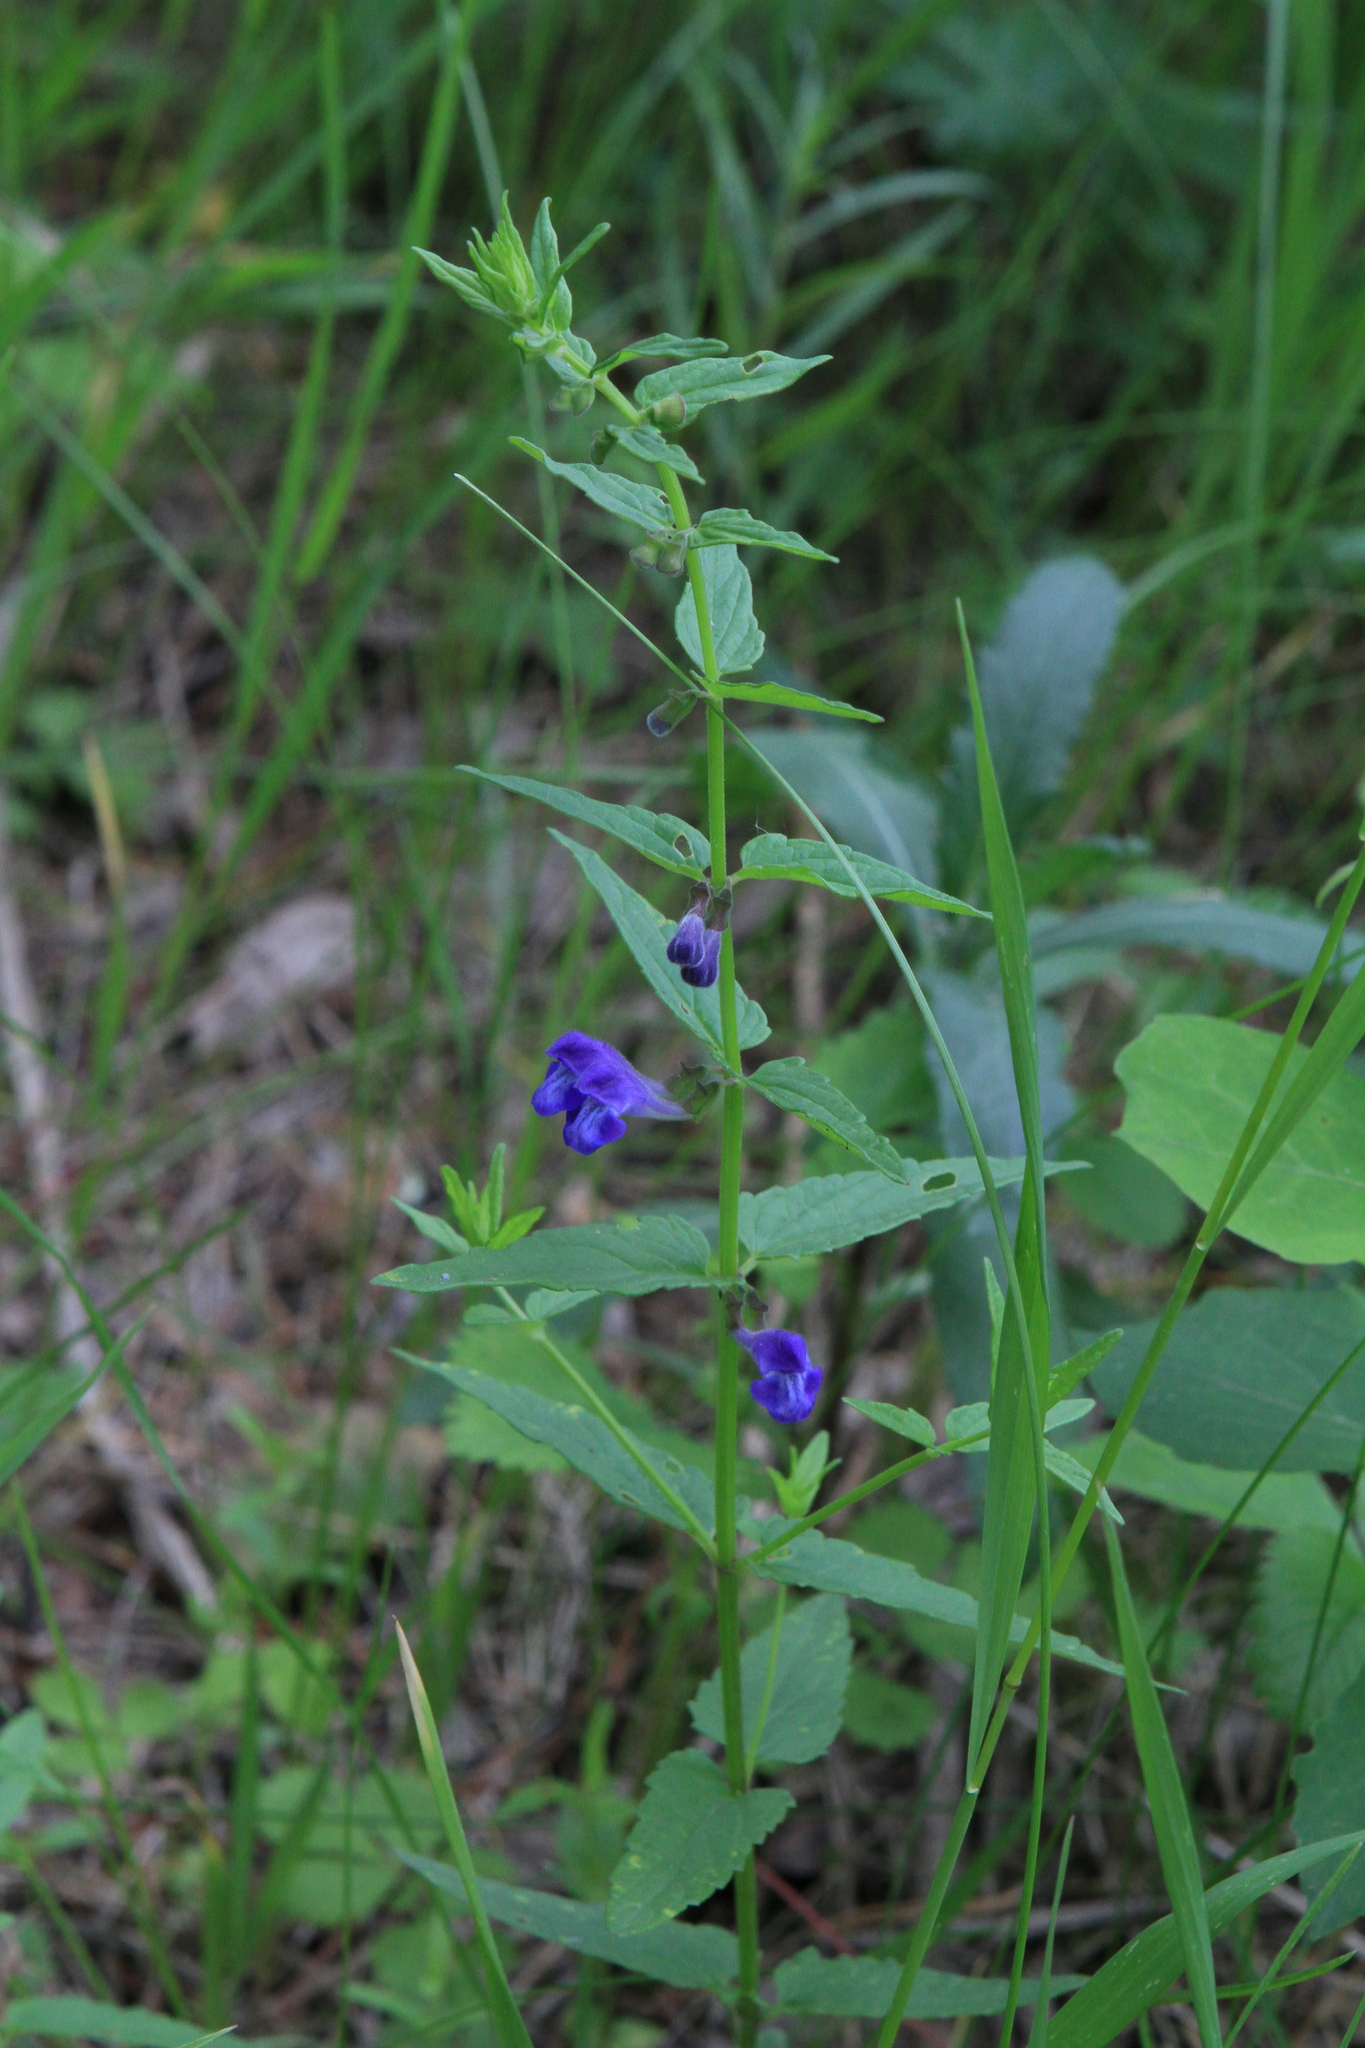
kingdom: Plantae
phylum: Tracheophyta
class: Magnoliopsida
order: Lamiales
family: Lamiaceae
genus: Scutellaria
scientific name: Scutellaria galericulata
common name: Skullcap
